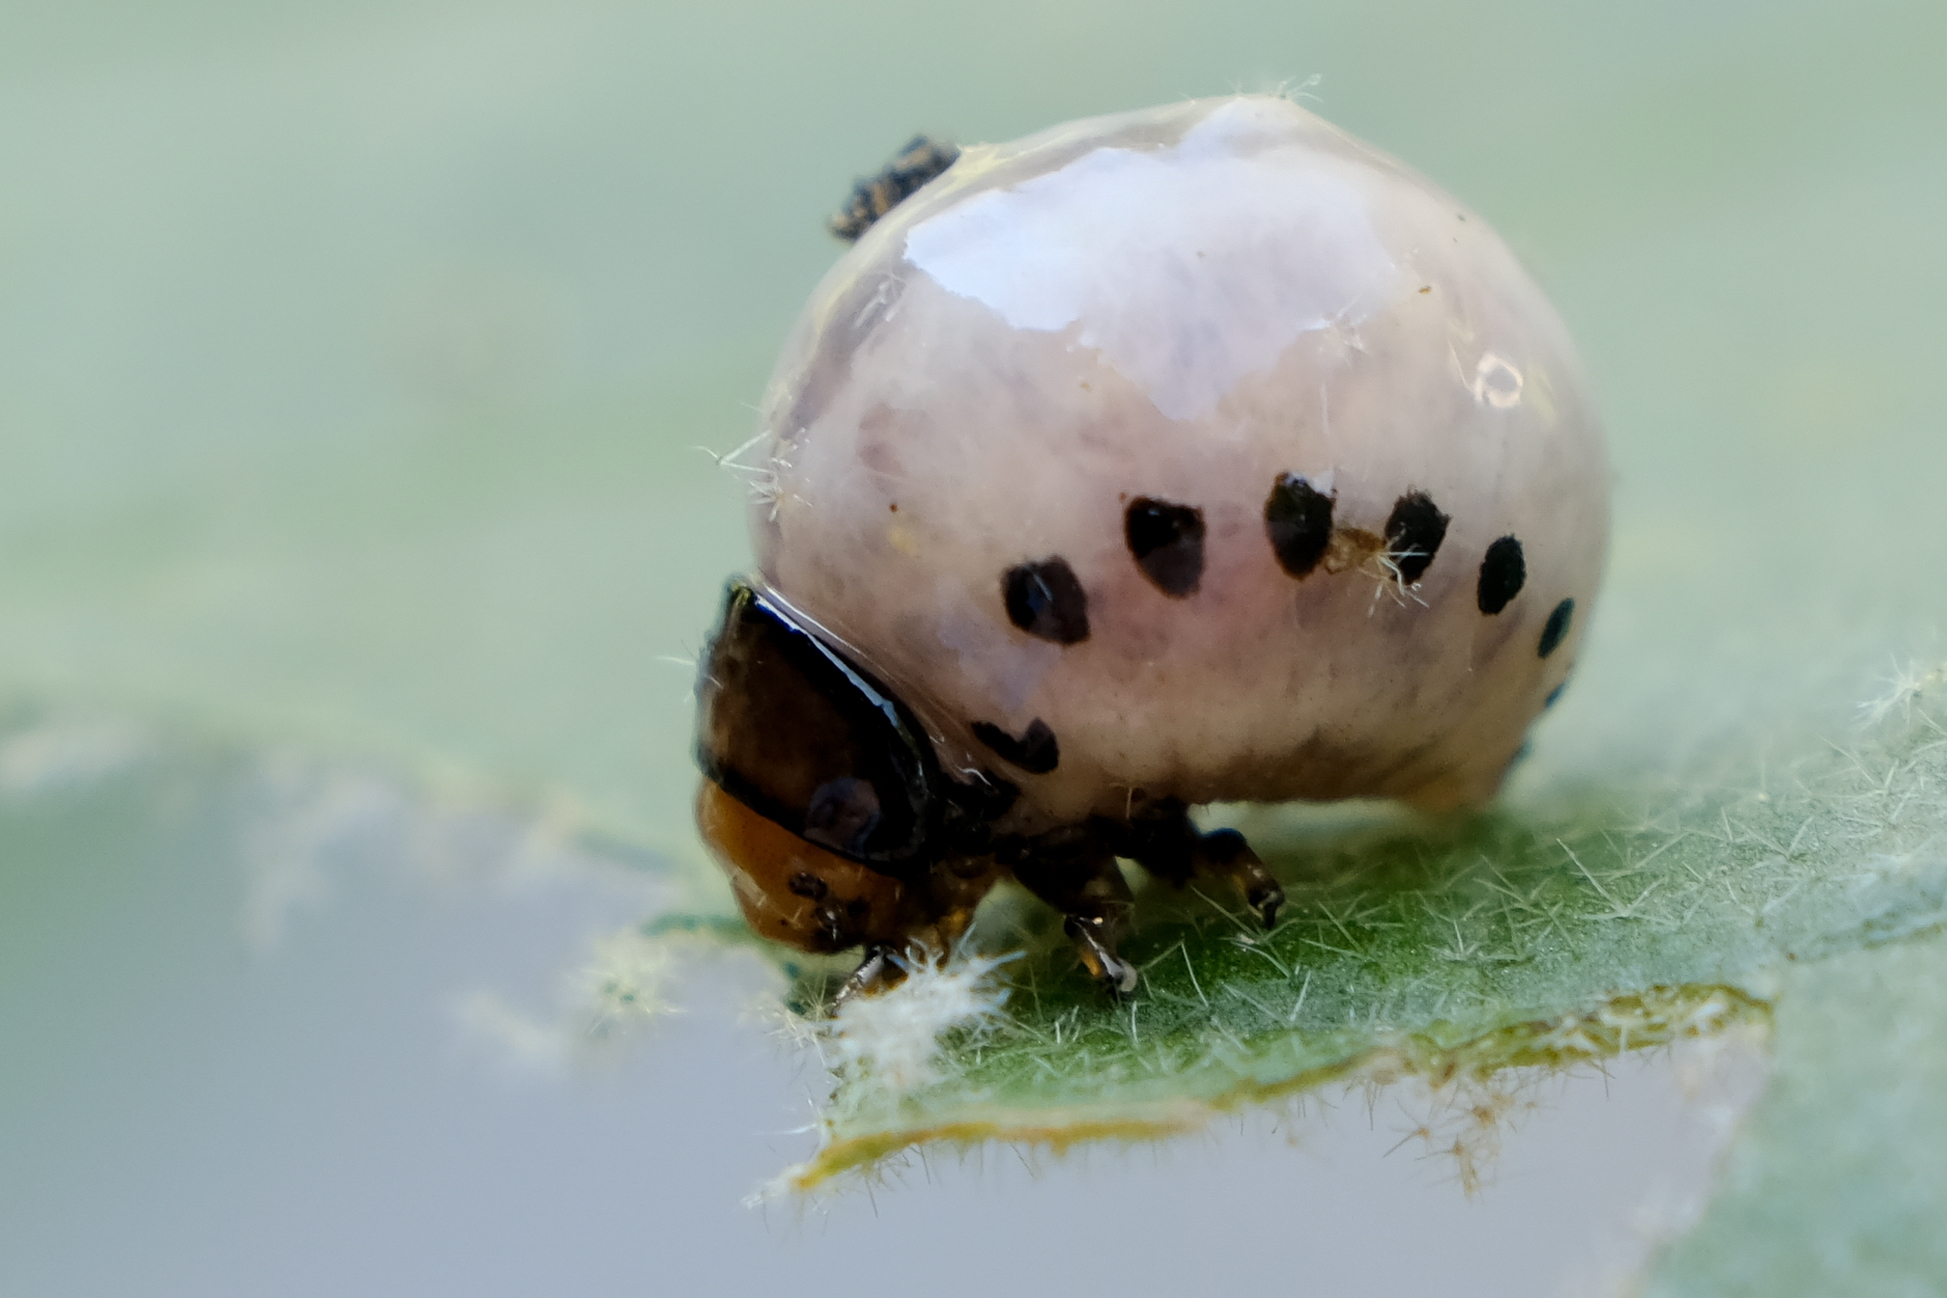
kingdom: Animalia
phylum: Arthropoda
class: Insecta
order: Coleoptera
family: Chrysomelidae
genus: Leptinotarsa
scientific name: Leptinotarsa juncta
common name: False potato beetle
